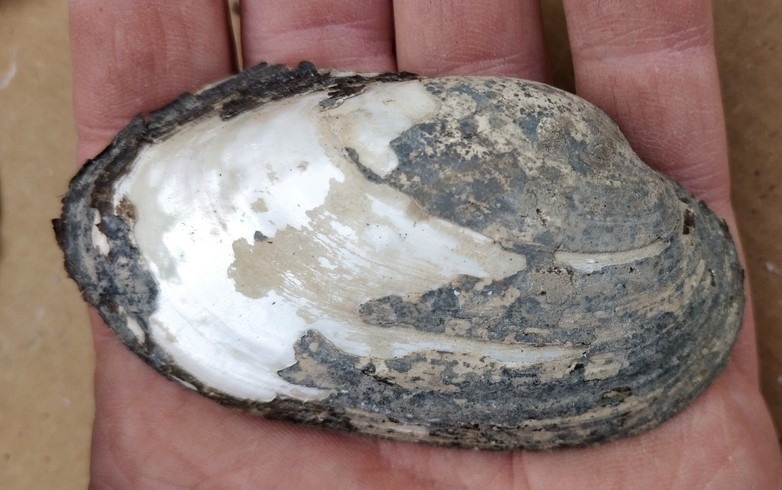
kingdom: Animalia
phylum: Mollusca
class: Bivalvia
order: Unionida
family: Unionidae
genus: Lampsilis
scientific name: Lampsilis siliquoidea
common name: Fatmucket
